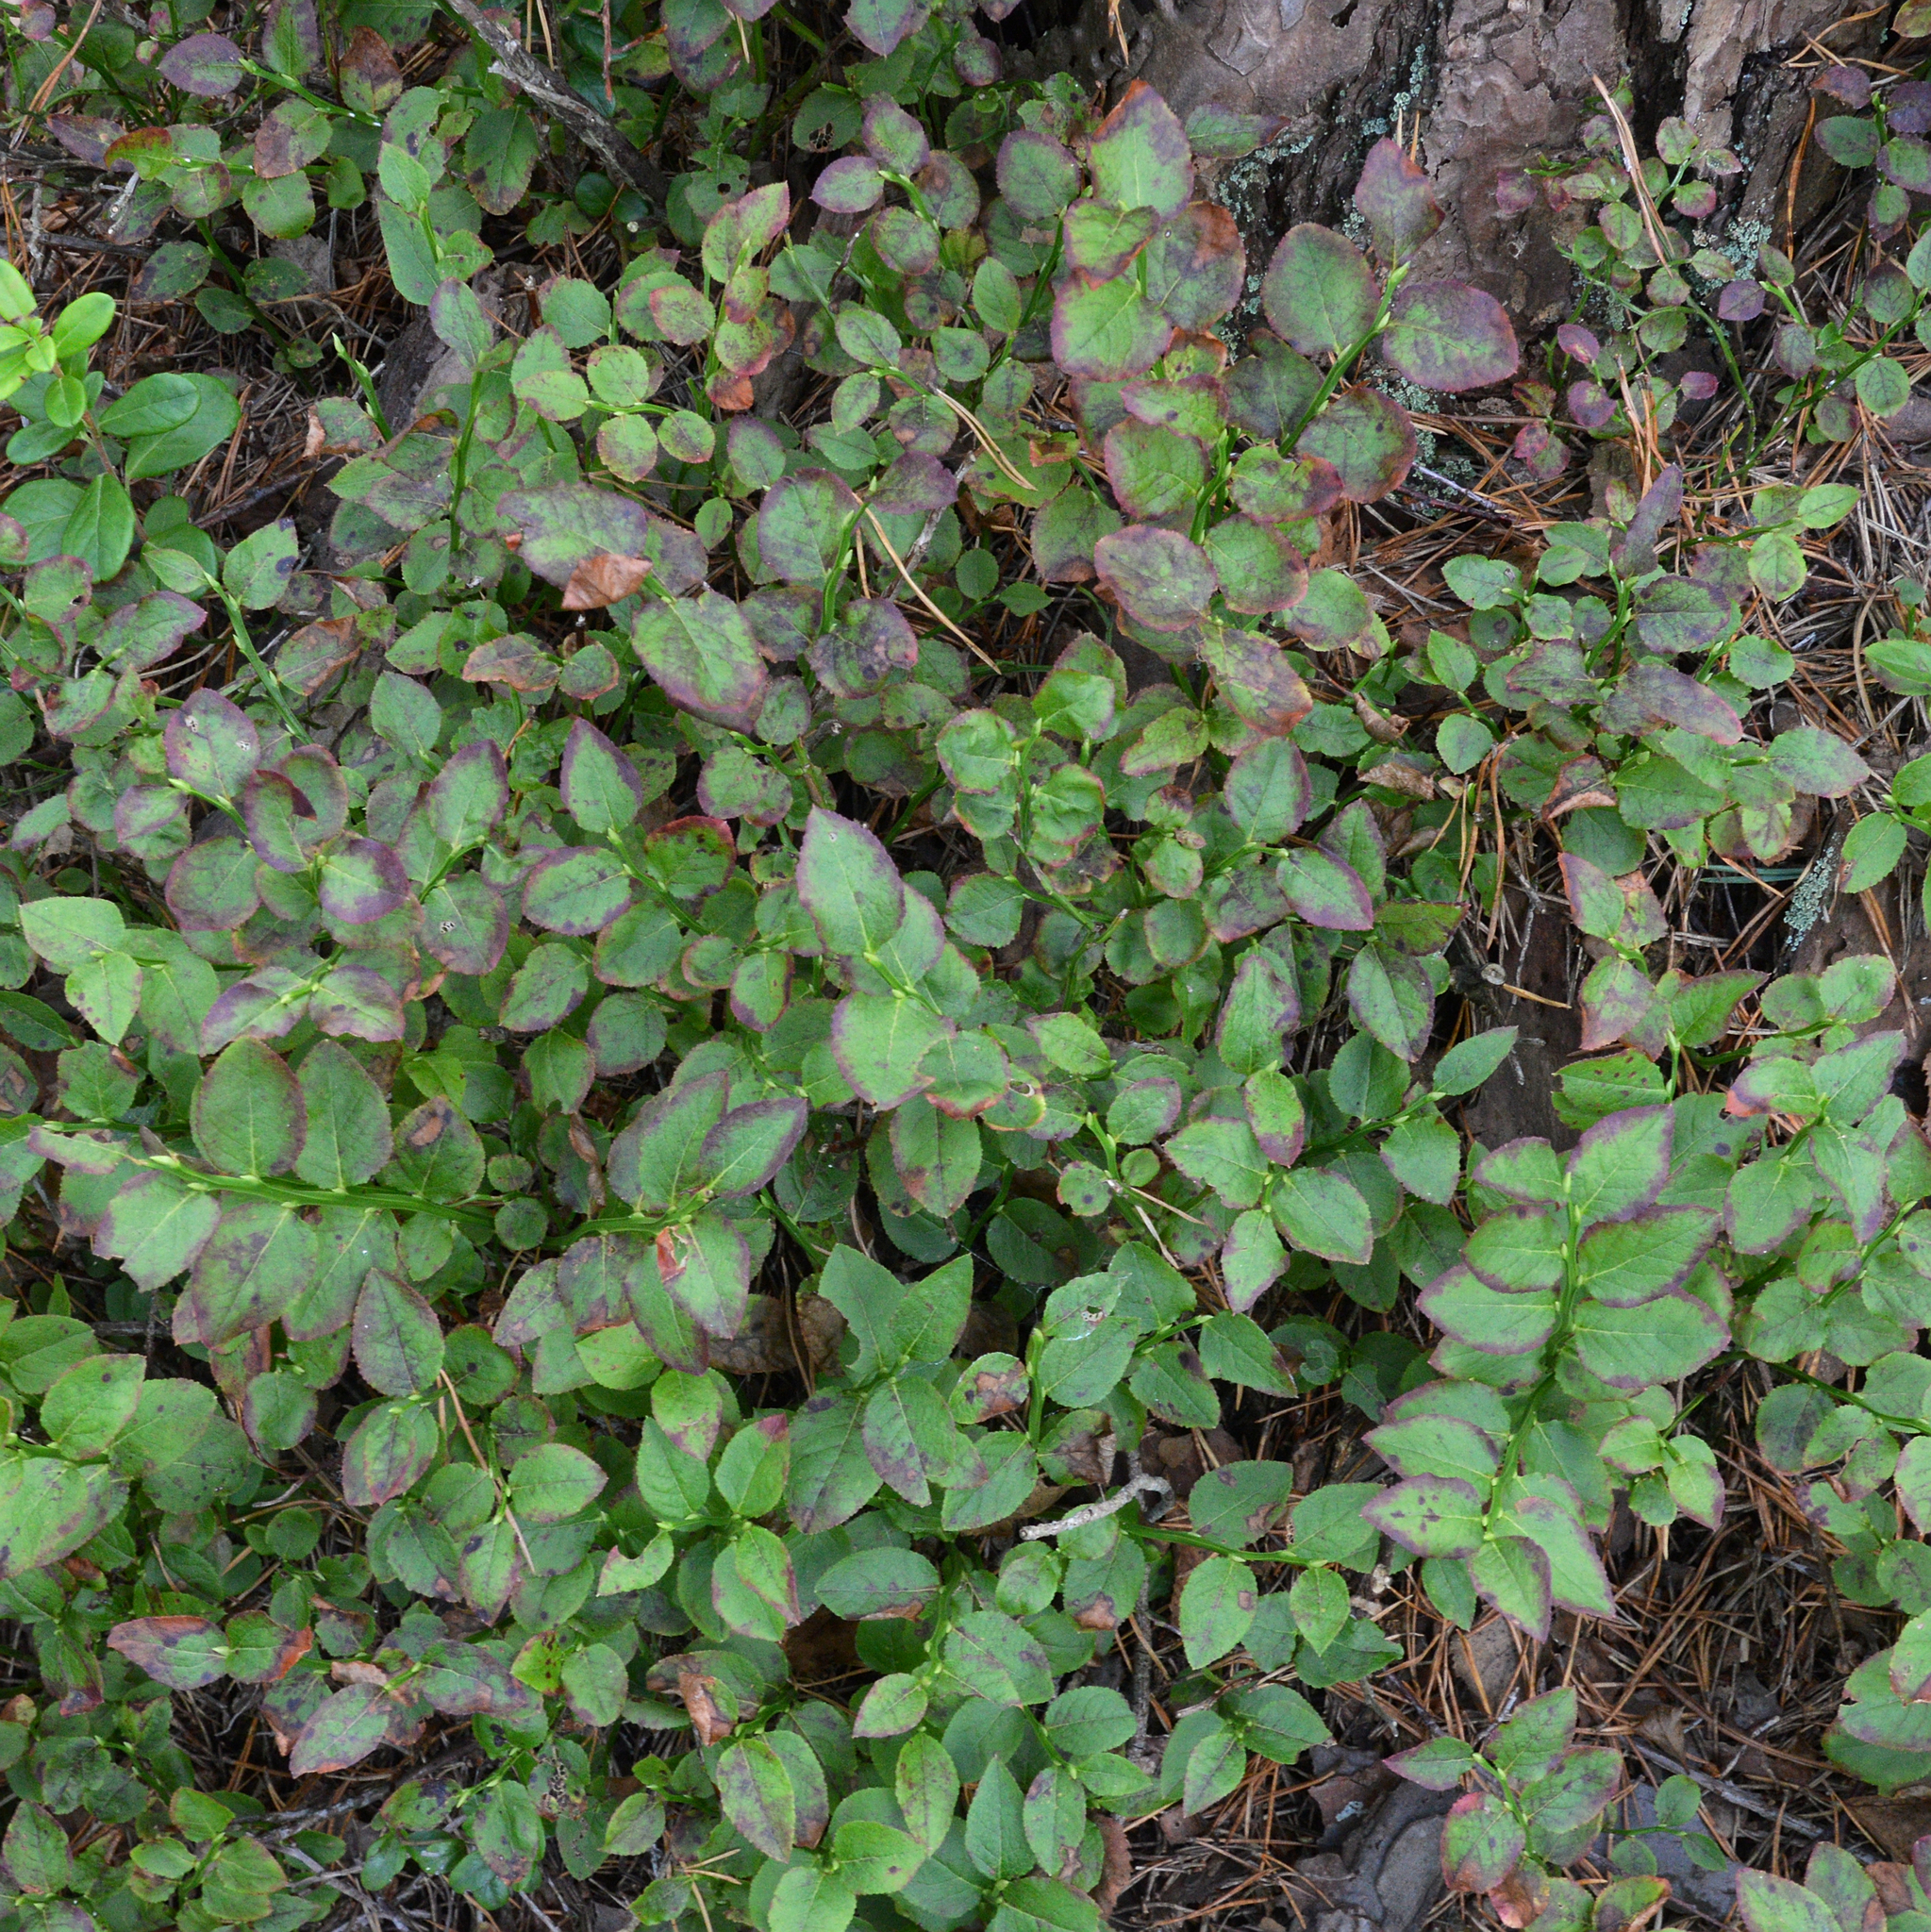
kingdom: Plantae
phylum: Tracheophyta
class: Magnoliopsida
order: Ericales
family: Ericaceae
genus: Vaccinium
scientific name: Vaccinium myrtillus
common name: Bilberry
